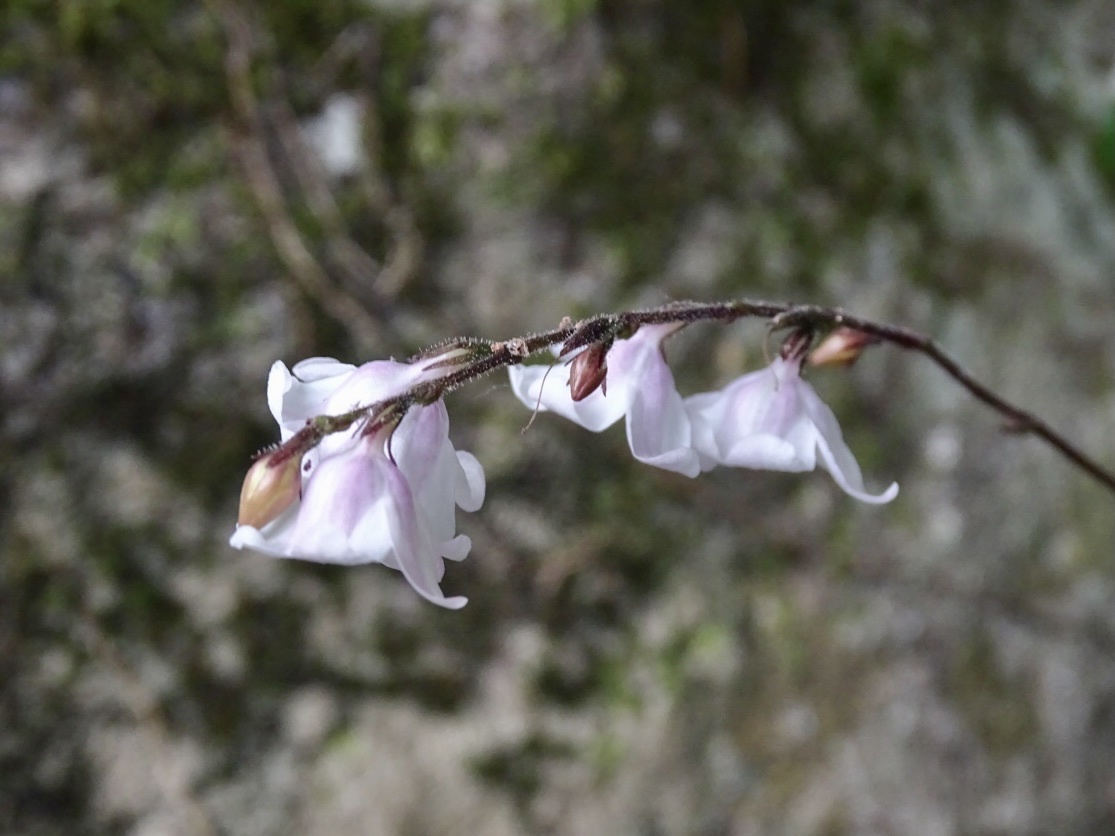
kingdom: Plantae
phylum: Tracheophyta
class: Magnoliopsida
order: Lamiales
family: Acanthaceae
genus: Codonacanthus
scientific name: Codonacanthus pauciflorus
